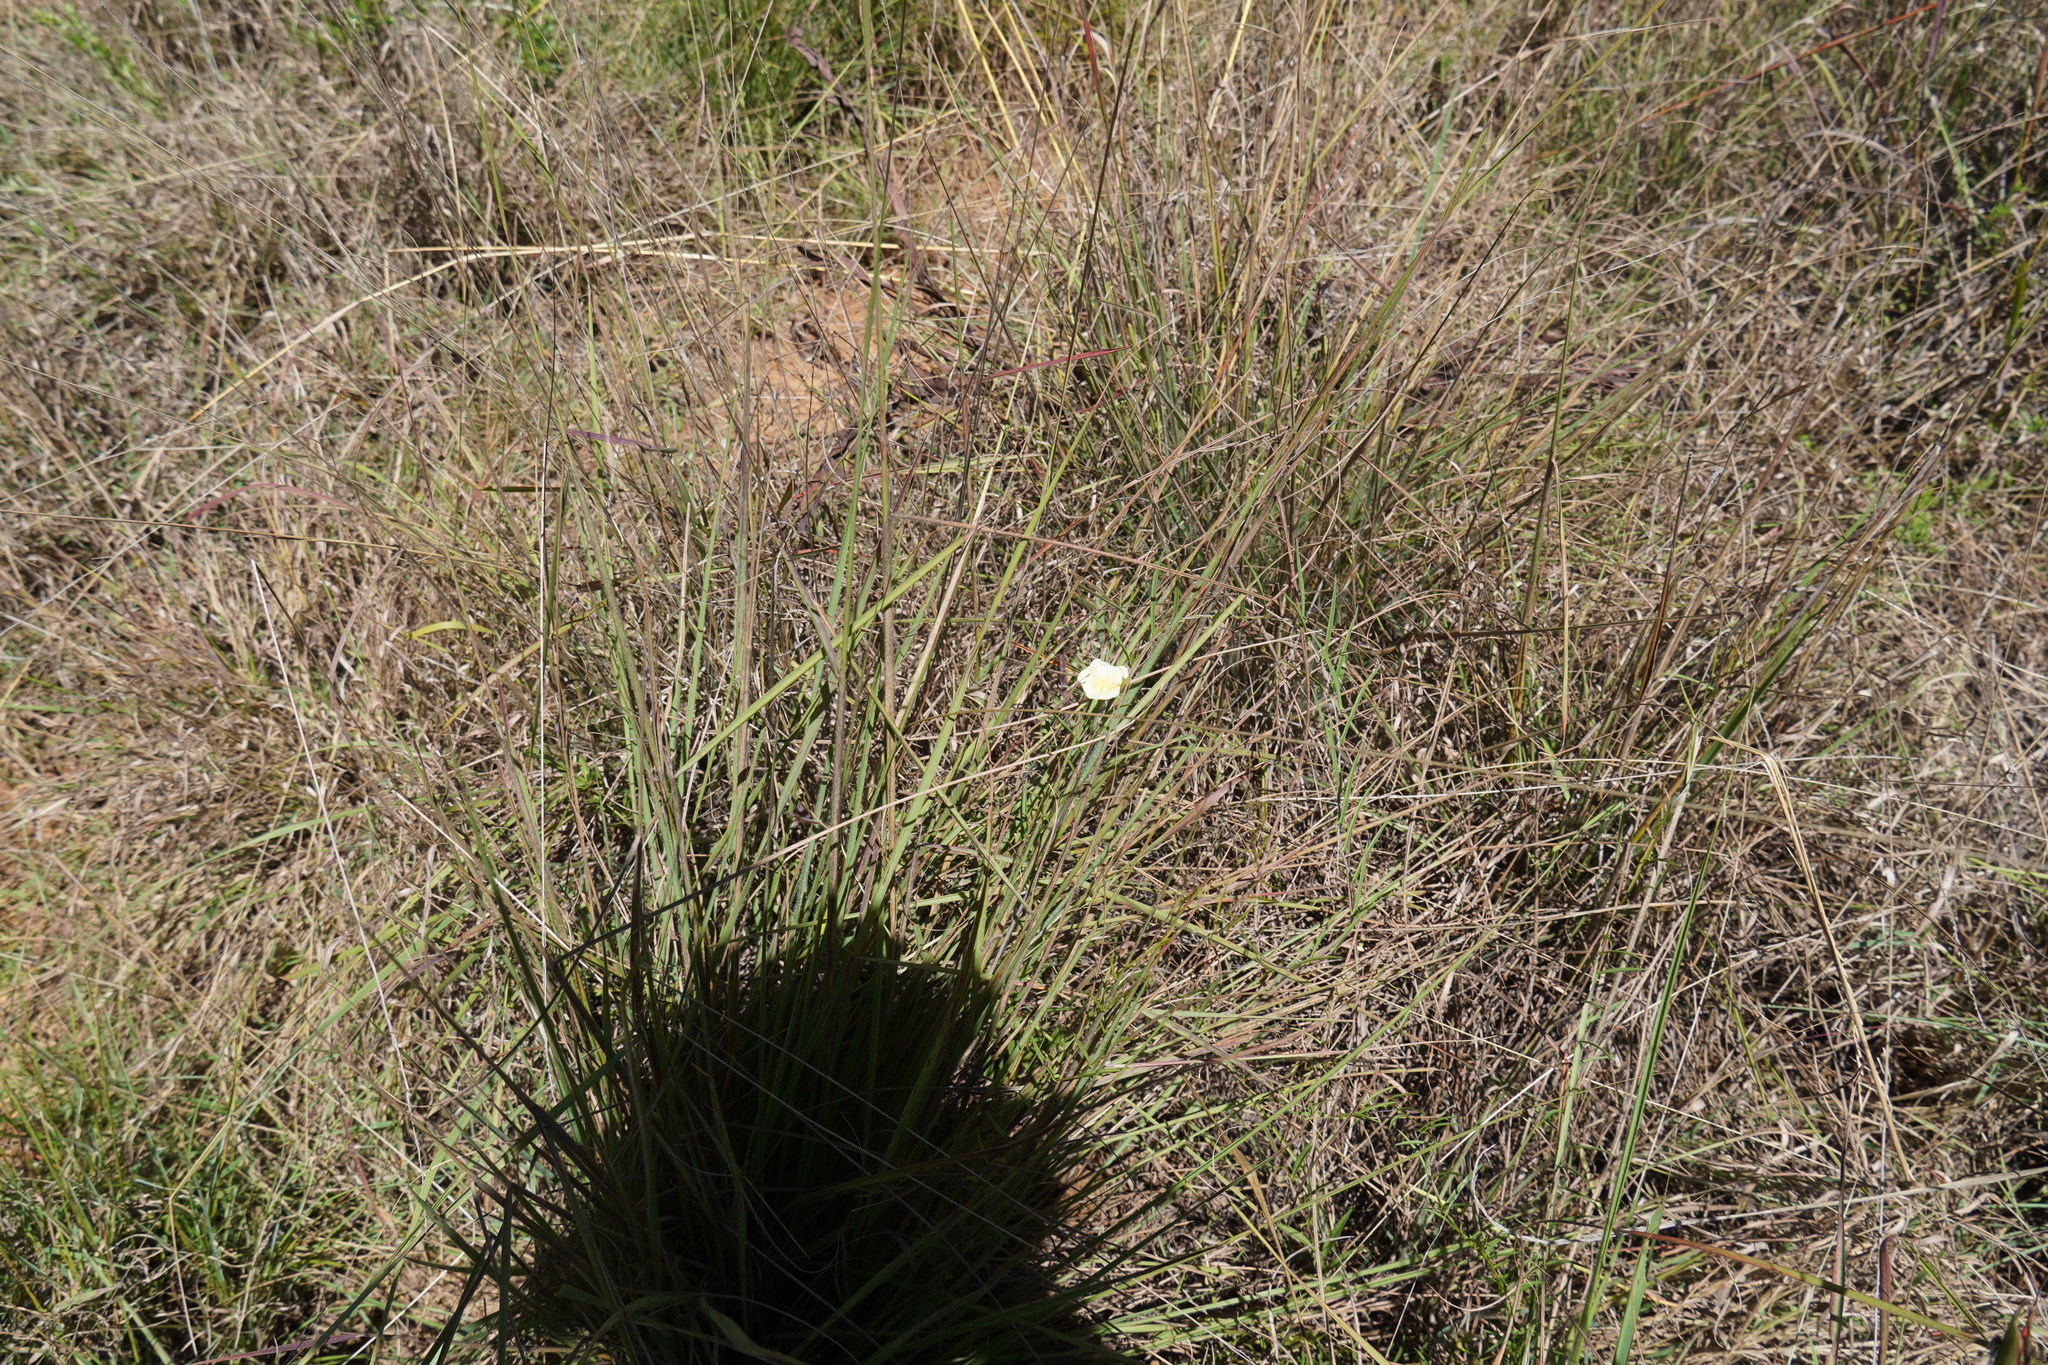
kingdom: Plantae
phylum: Tracheophyta
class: Magnoliopsida
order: Solanales
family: Convolvulaceae
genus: Xenostegia
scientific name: Xenostegia tridentata
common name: African morningvine
